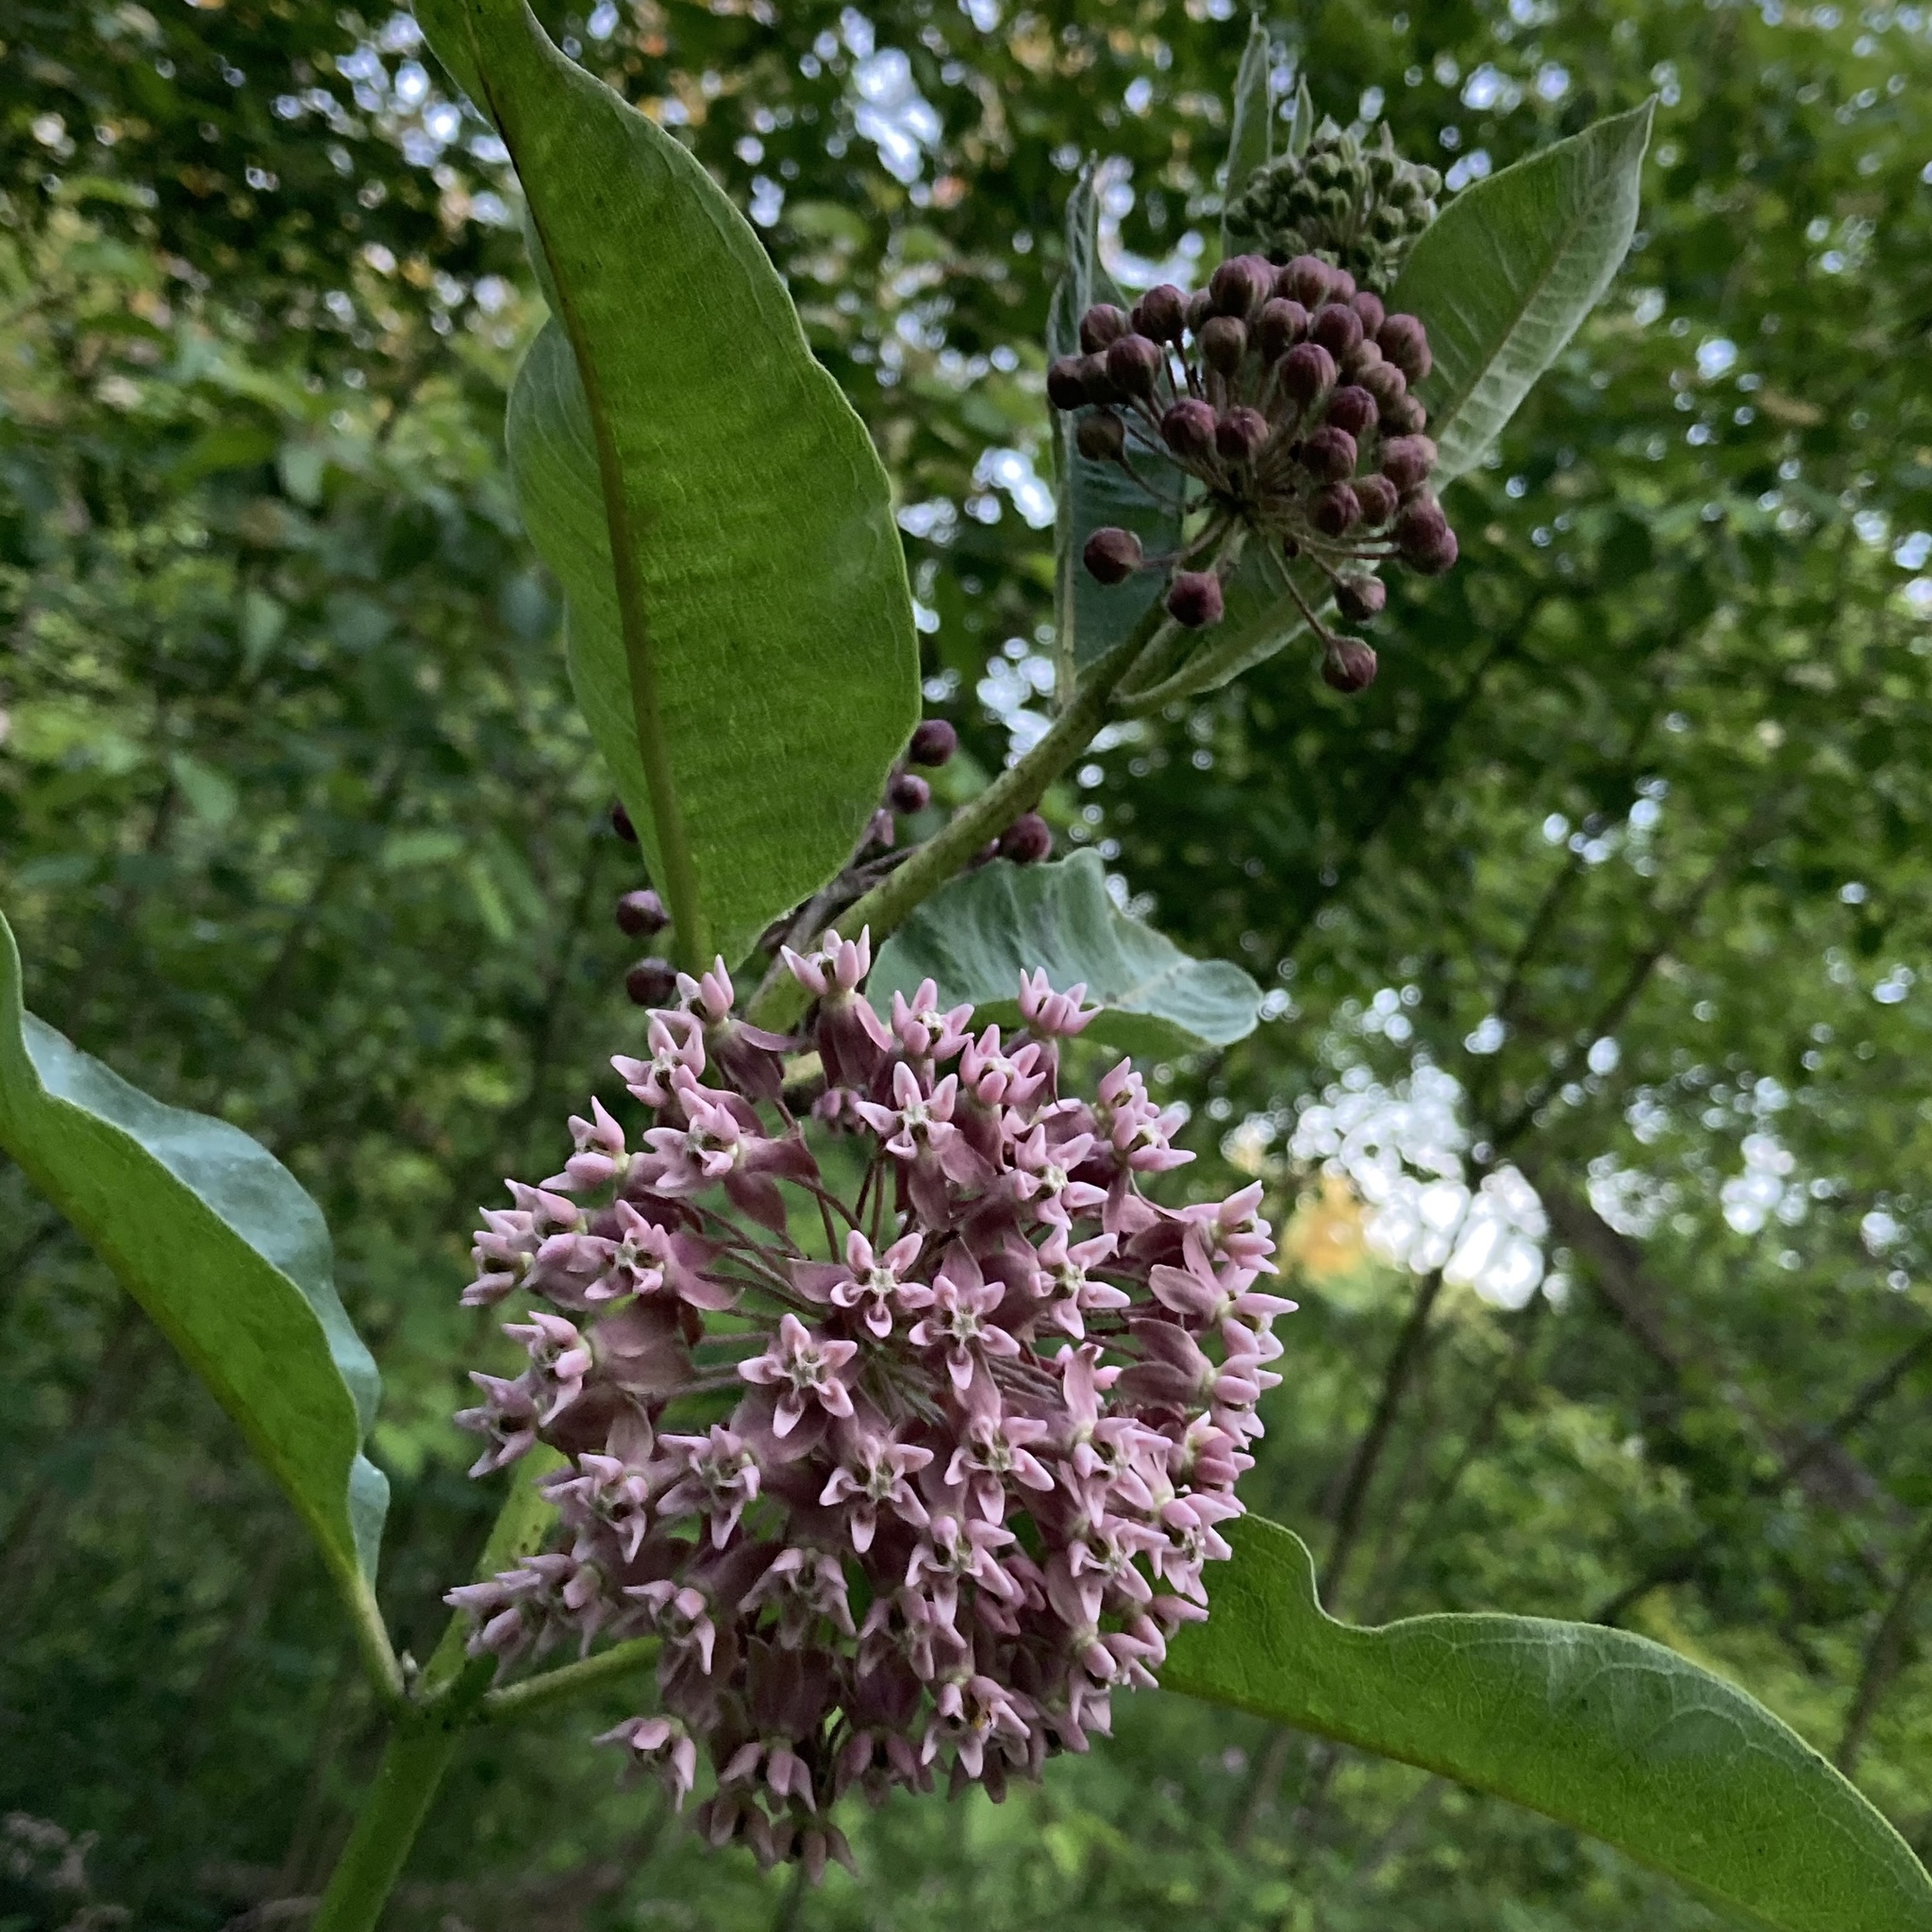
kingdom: Plantae
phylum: Tracheophyta
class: Magnoliopsida
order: Gentianales
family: Apocynaceae
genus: Asclepias
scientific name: Asclepias syriaca
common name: Common milkweed
